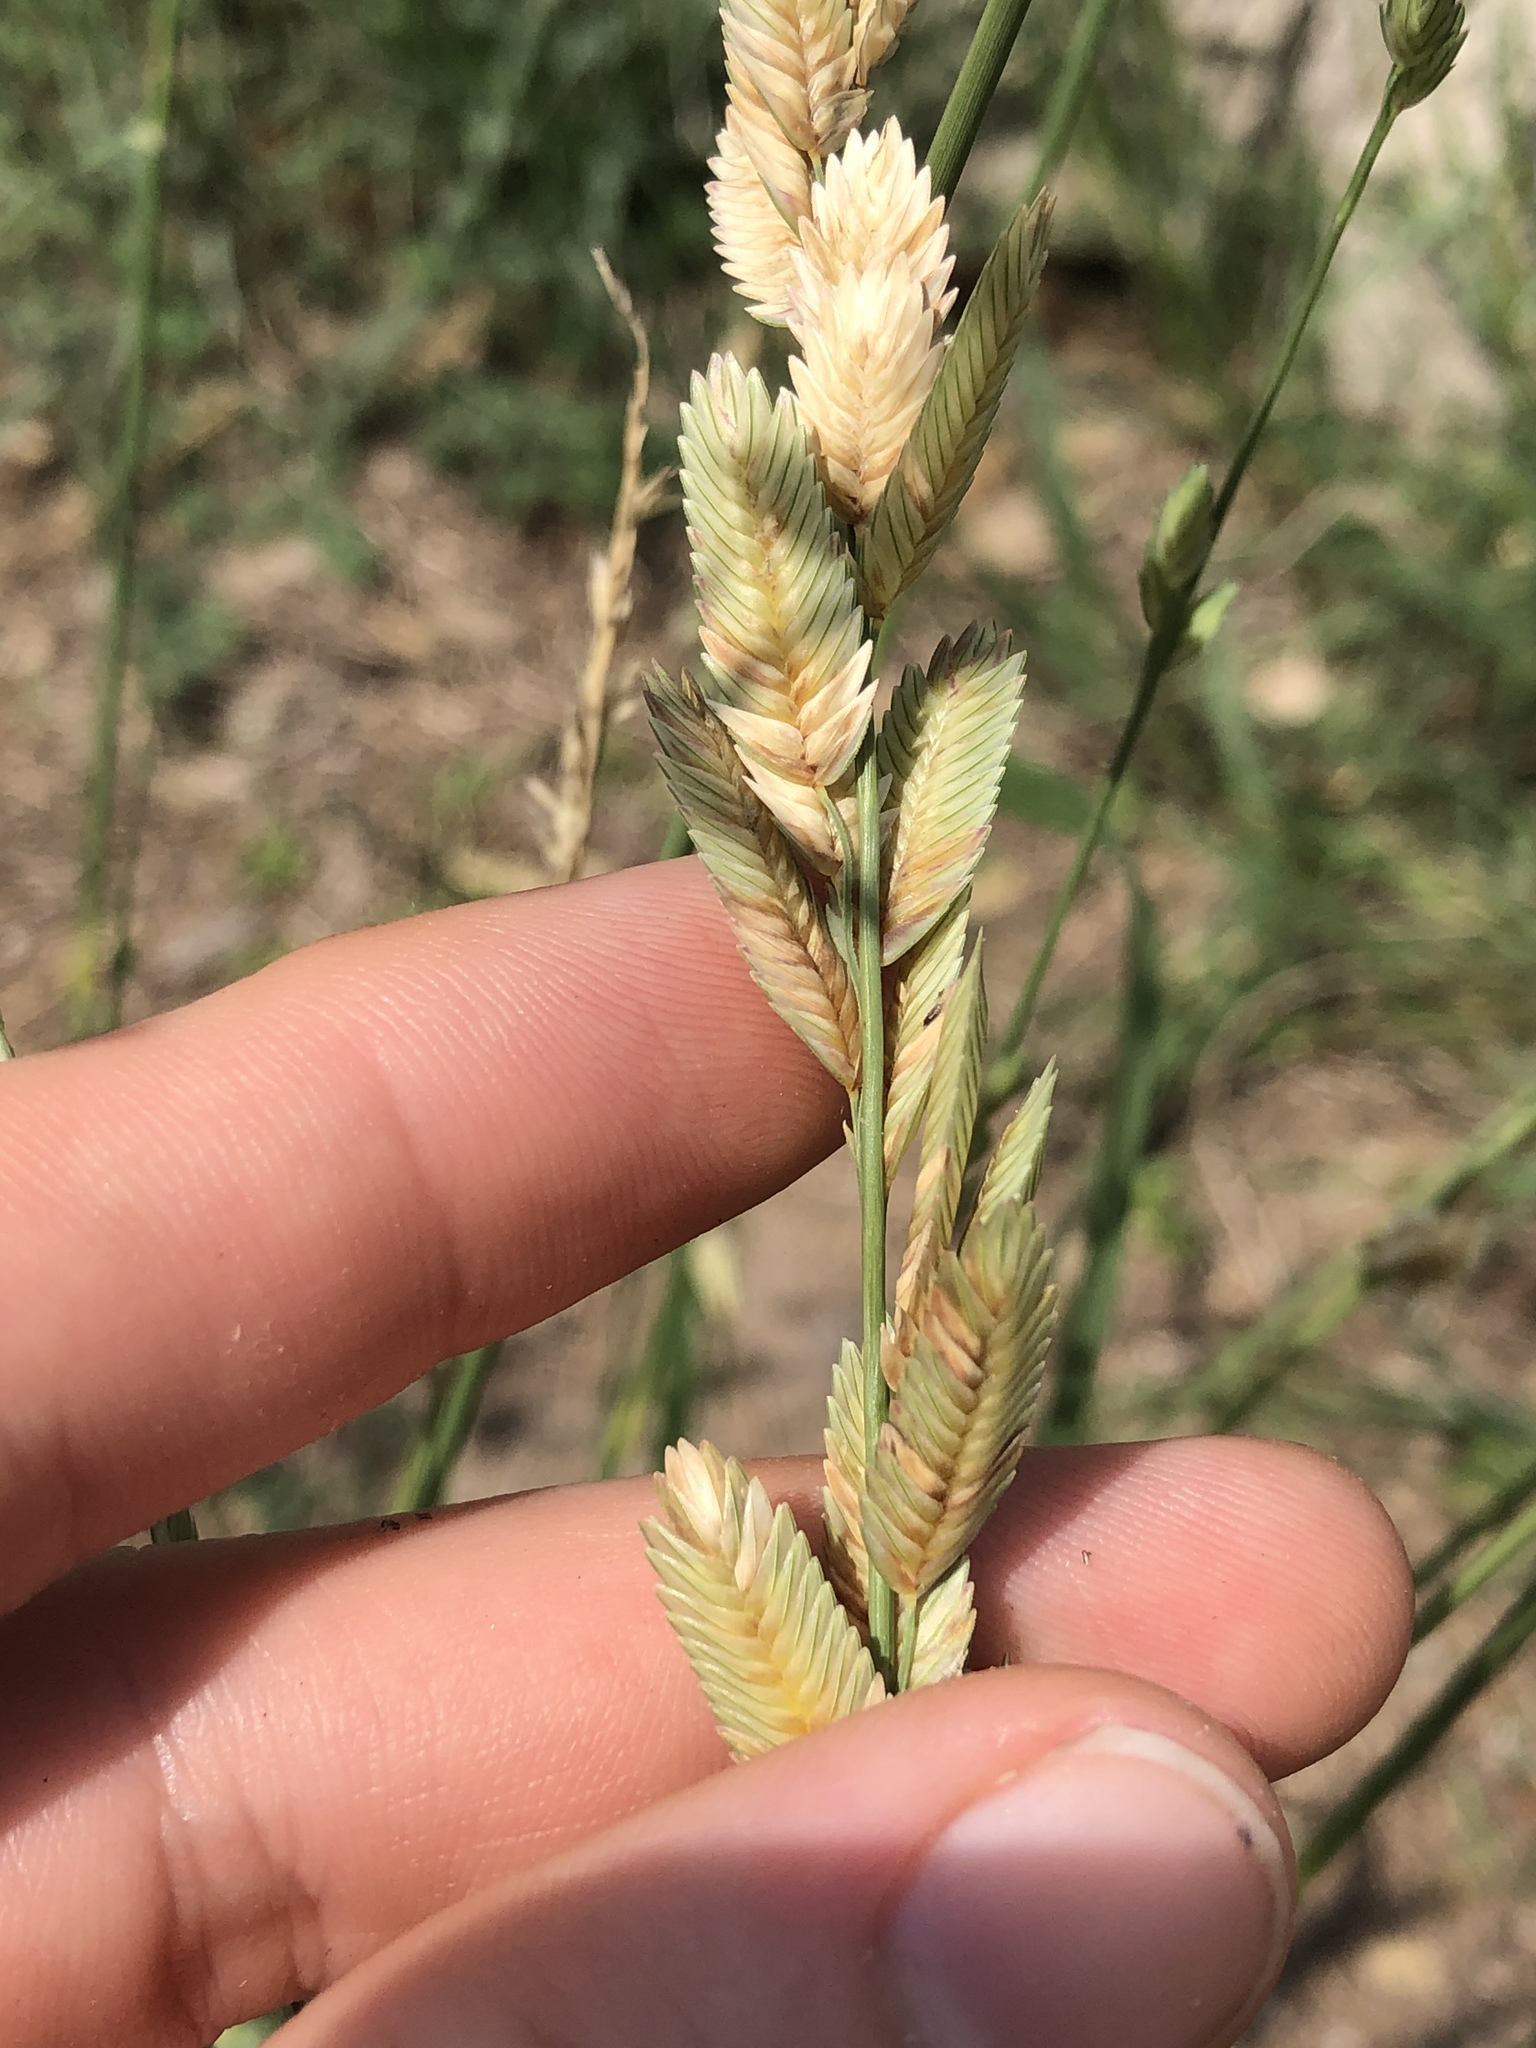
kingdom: Plantae
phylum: Tracheophyta
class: Liliopsida
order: Poales
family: Poaceae
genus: Eragrostis
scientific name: Eragrostis superba
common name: Wilman lovegrass
